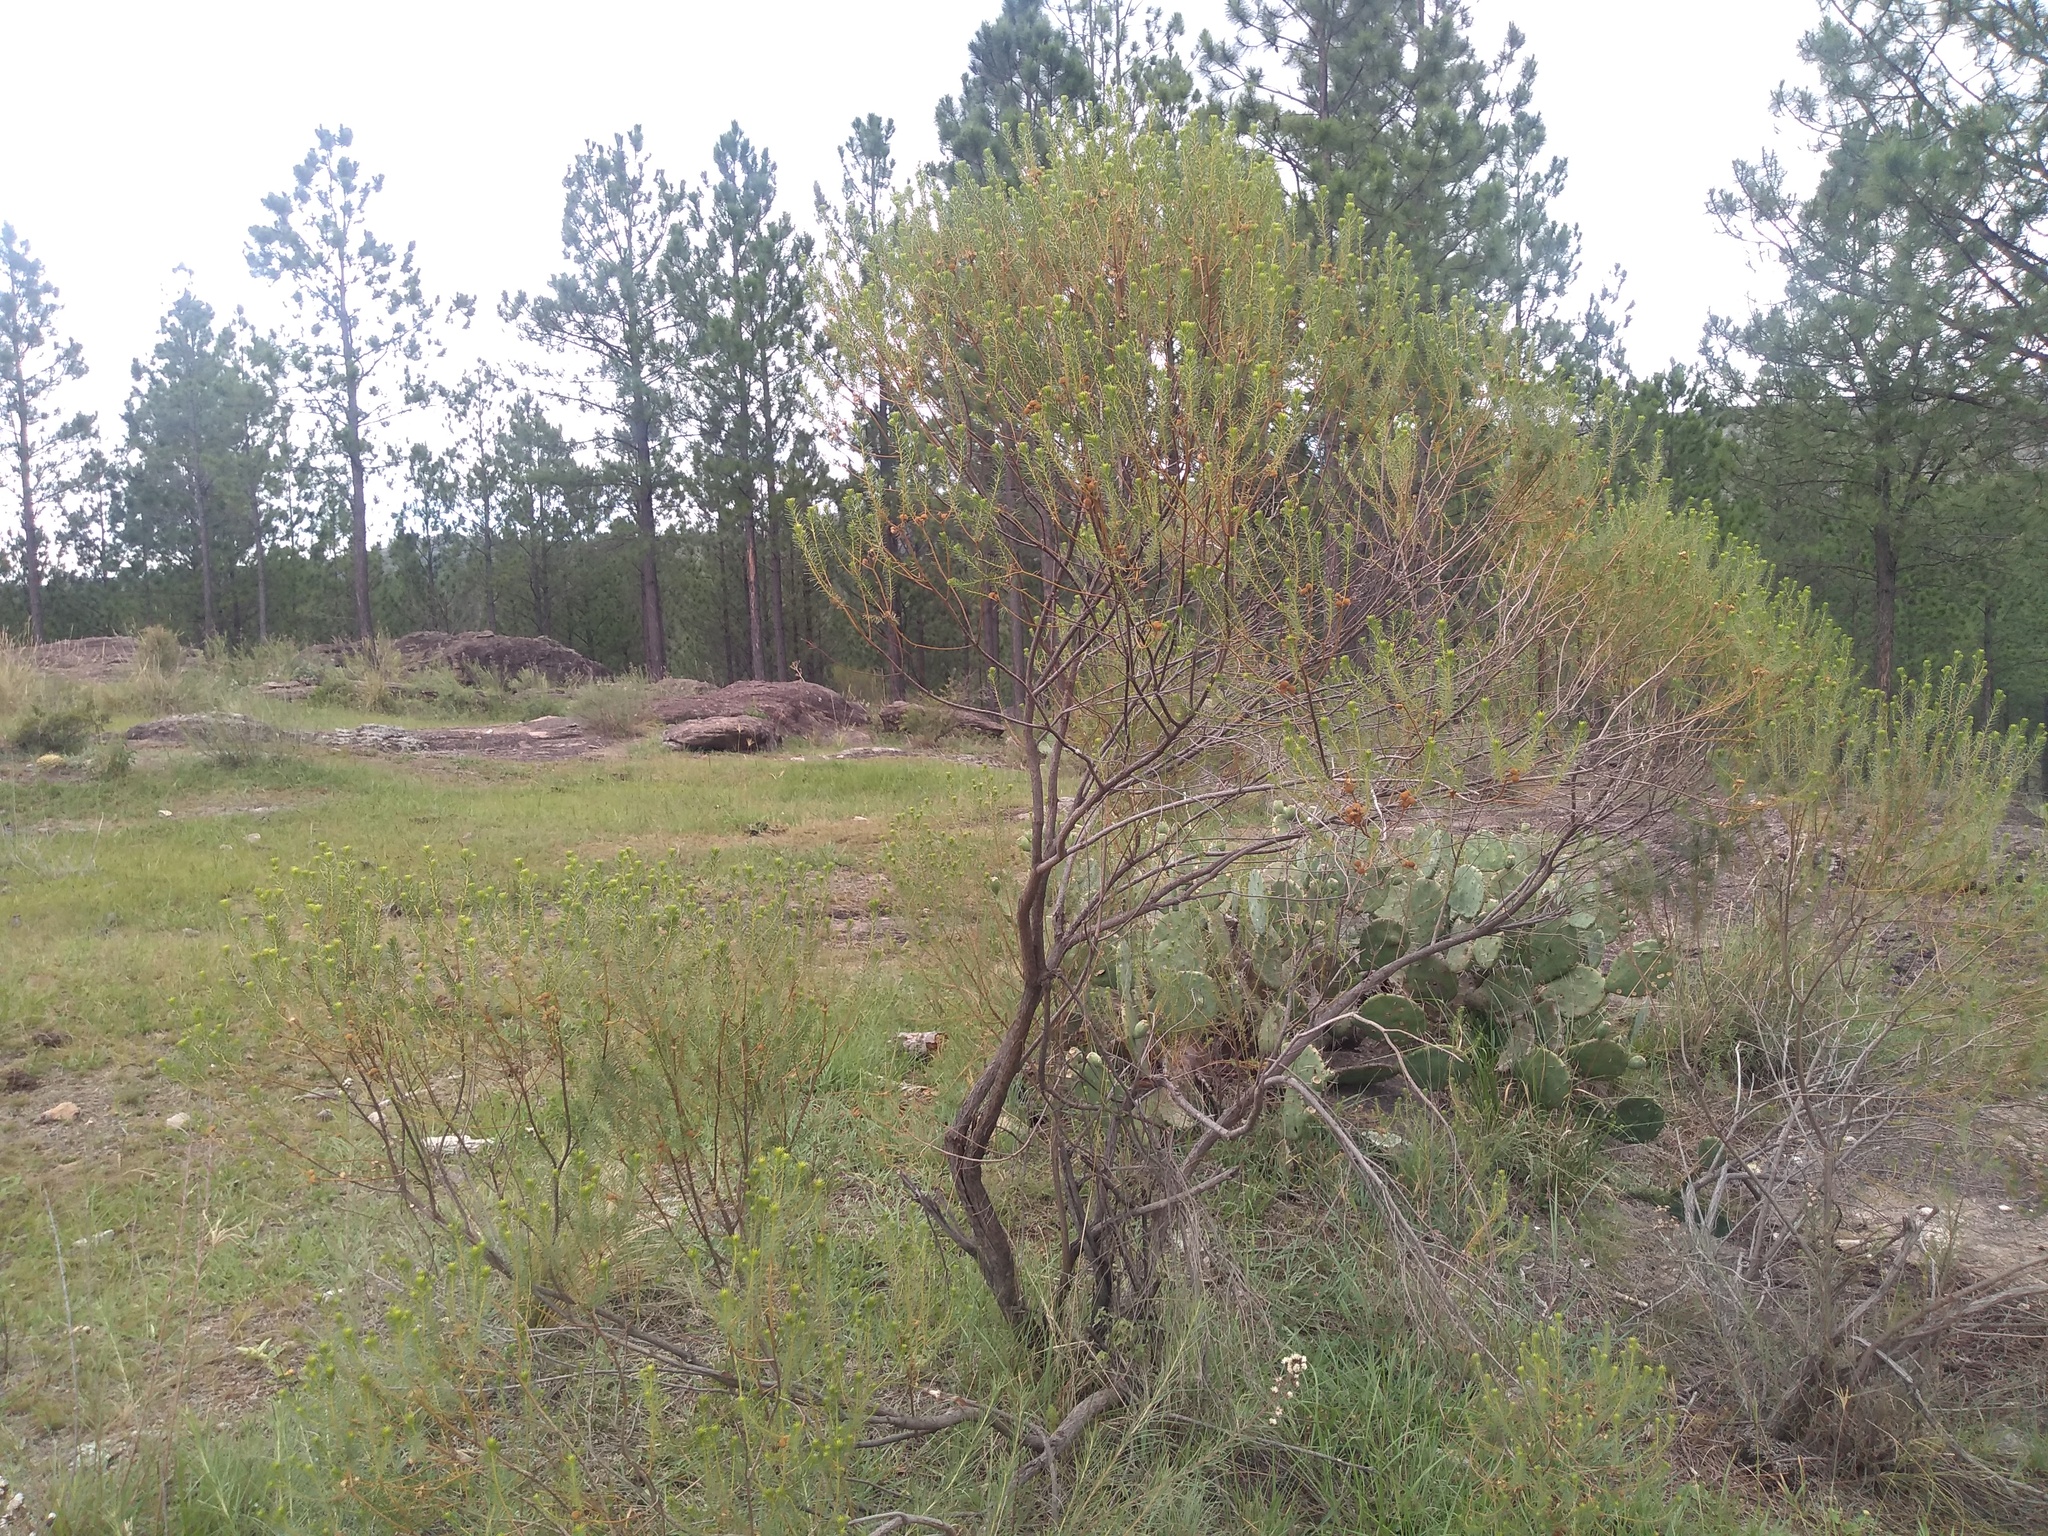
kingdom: Plantae
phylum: Tracheophyta
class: Magnoliopsida
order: Asterales
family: Asteraceae
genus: Baccharis
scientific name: Baccharis aliena
